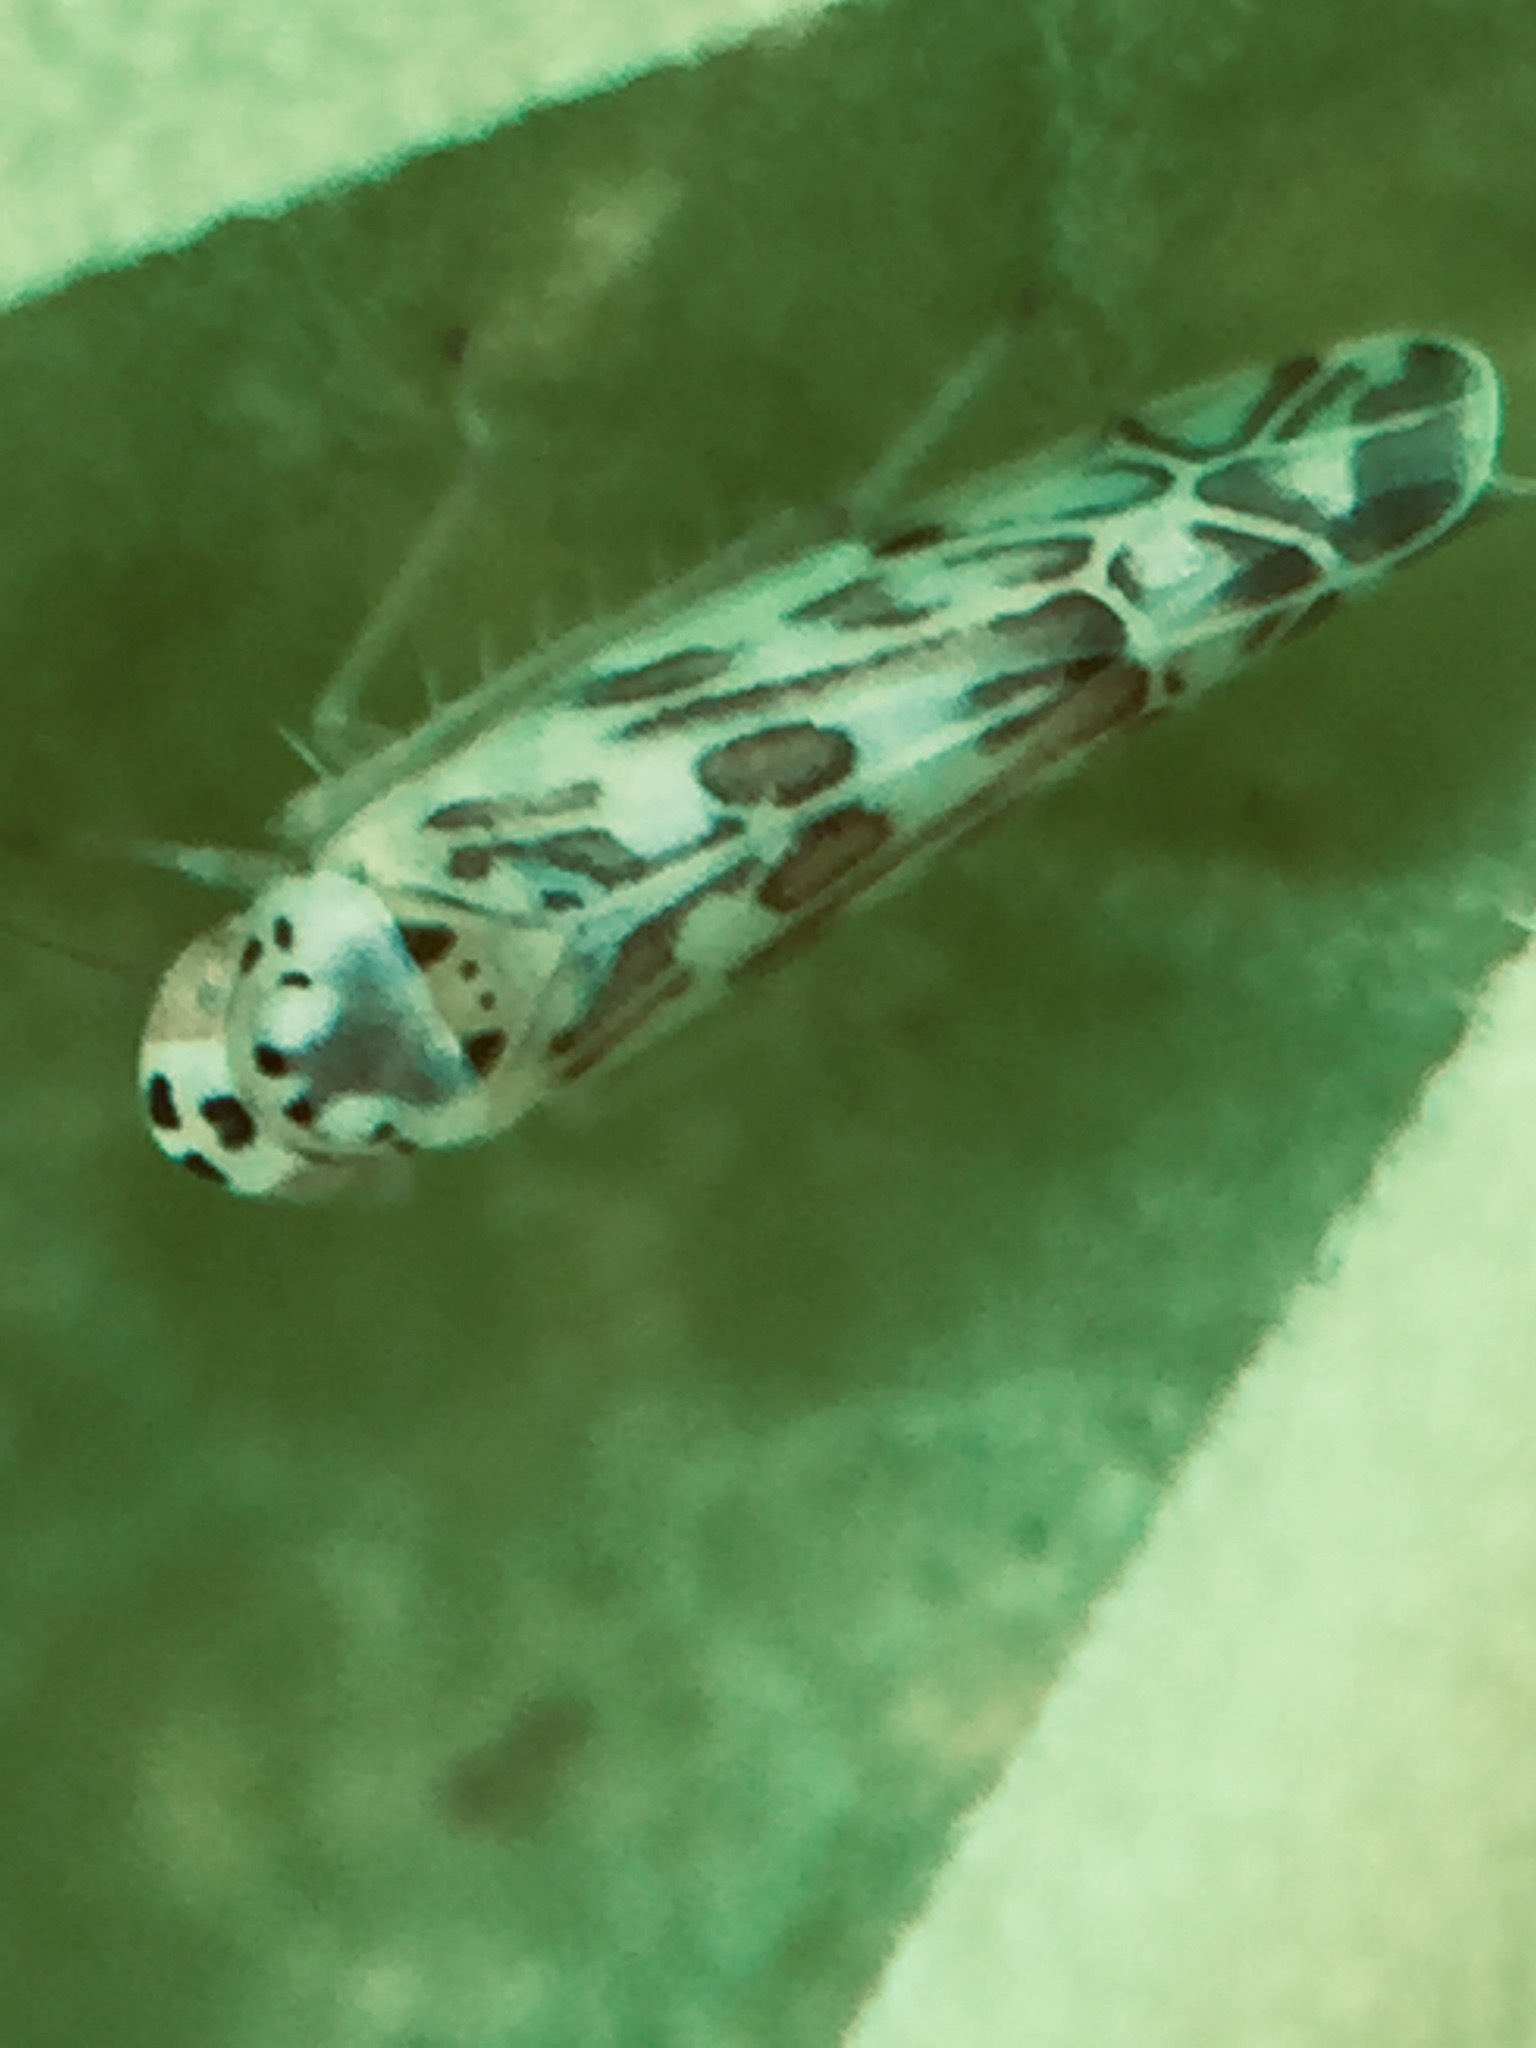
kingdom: Animalia
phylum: Arthropoda
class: Insecta
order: Hemiptera
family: Cicadellidae
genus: Eupteryx
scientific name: Eupteryx melissae
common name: Herb leafhopper
